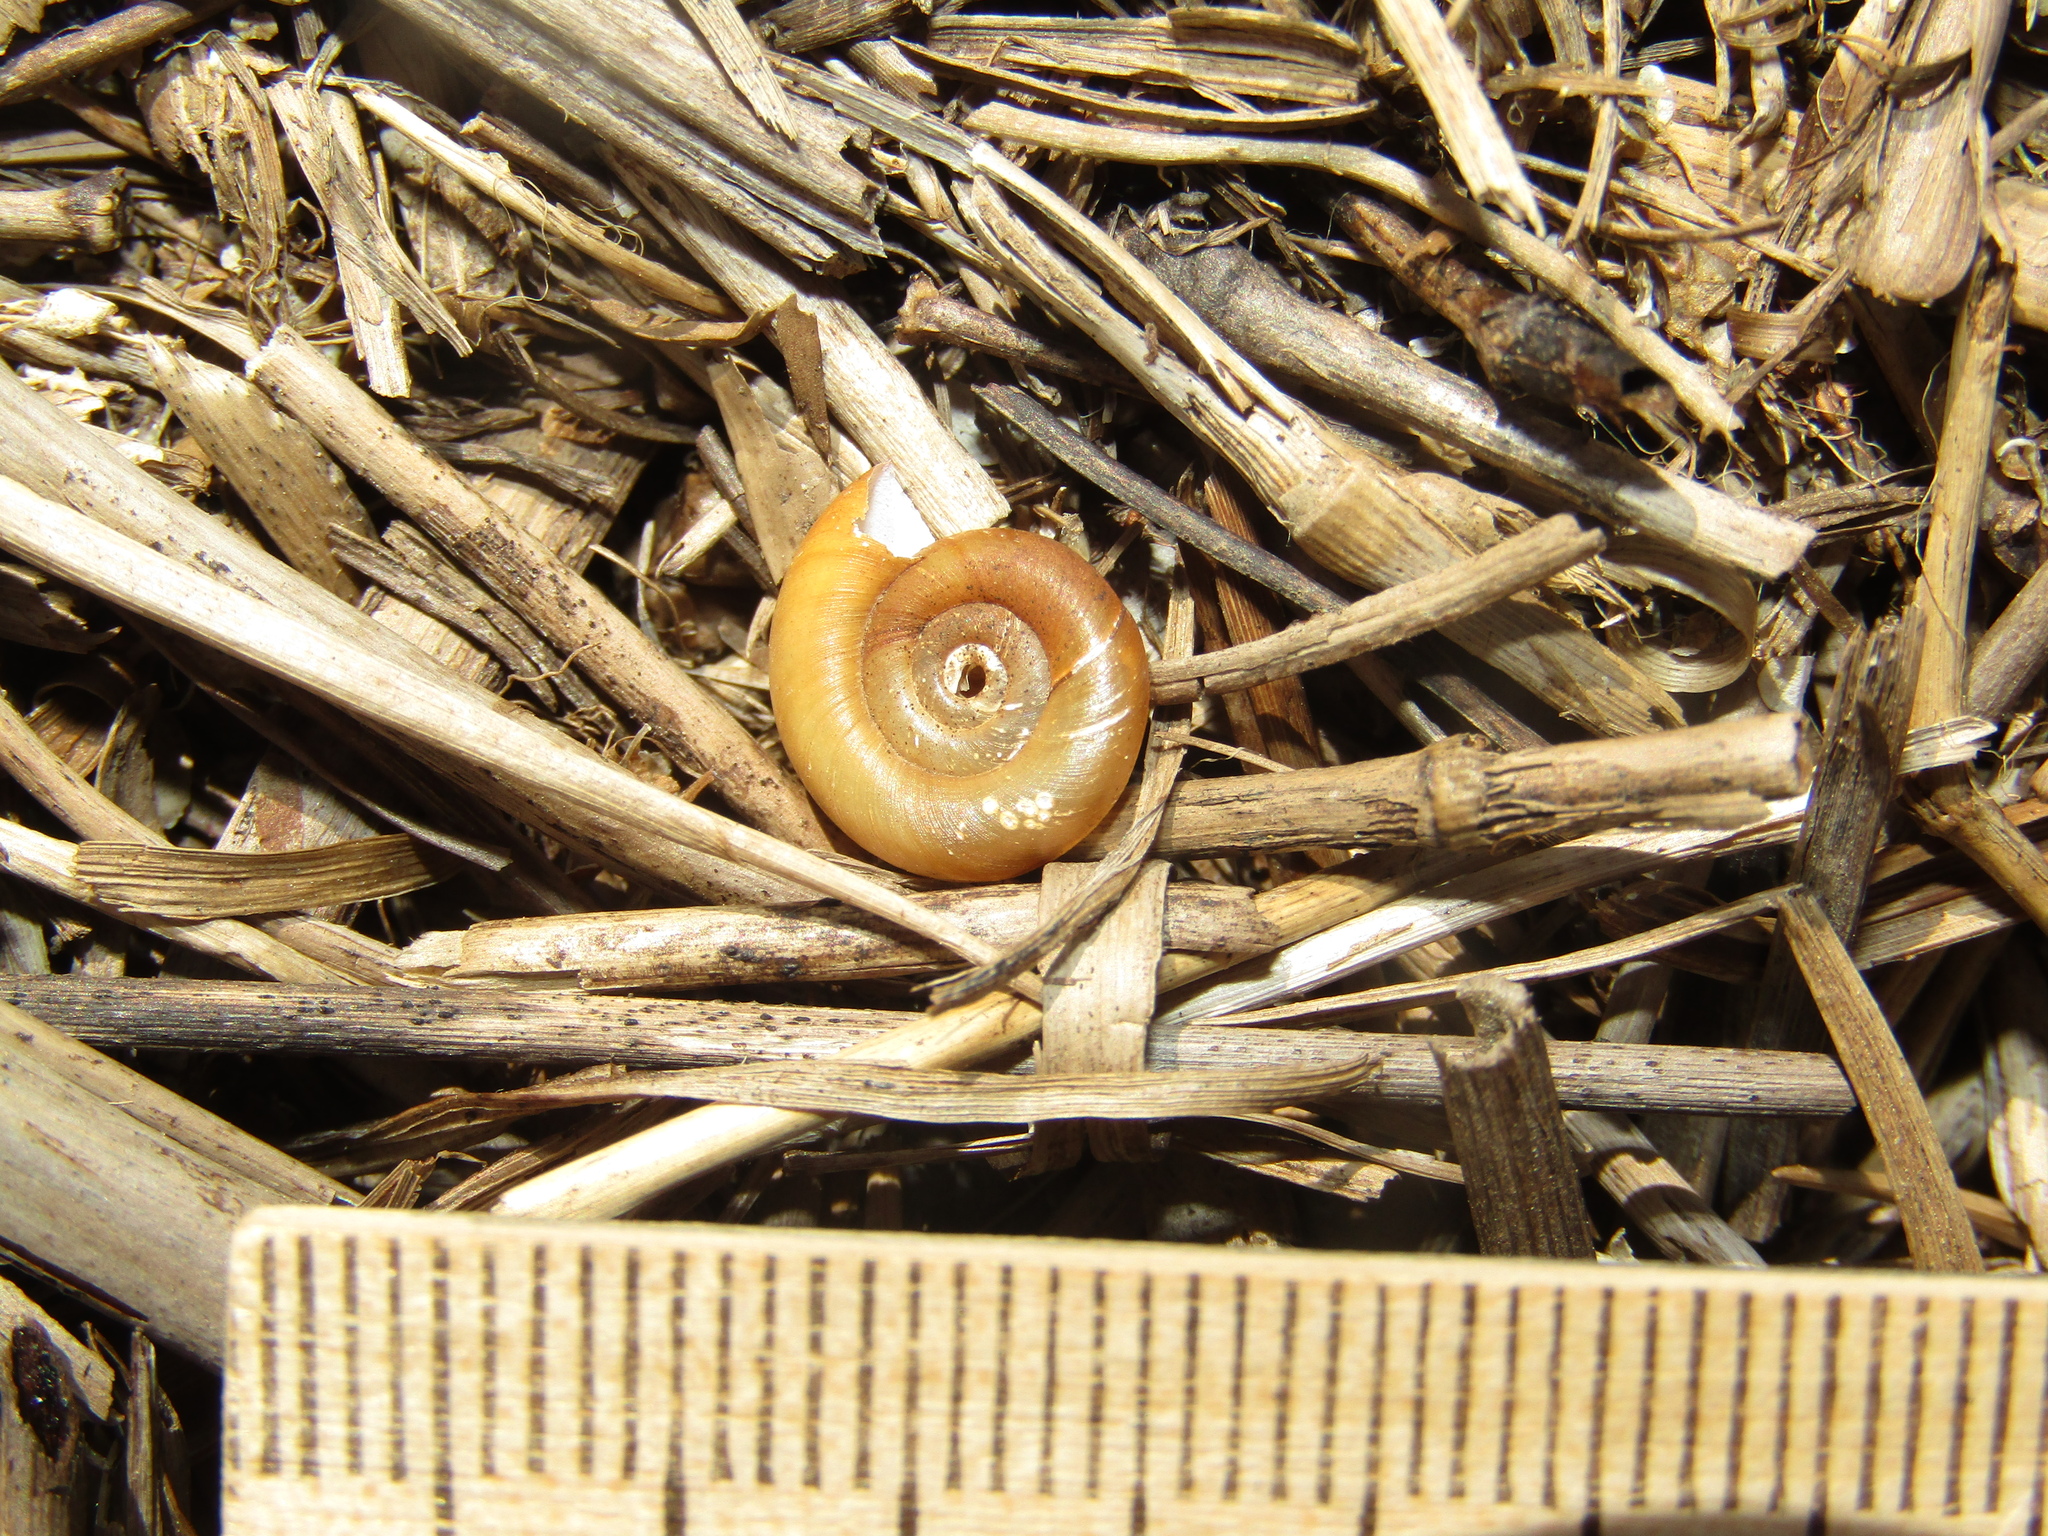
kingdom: Animalia
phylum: Mollusca
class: Gastropoda
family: Planorbidae
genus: Planorbis
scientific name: Planorbis planorbis
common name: Margined ramshorn
